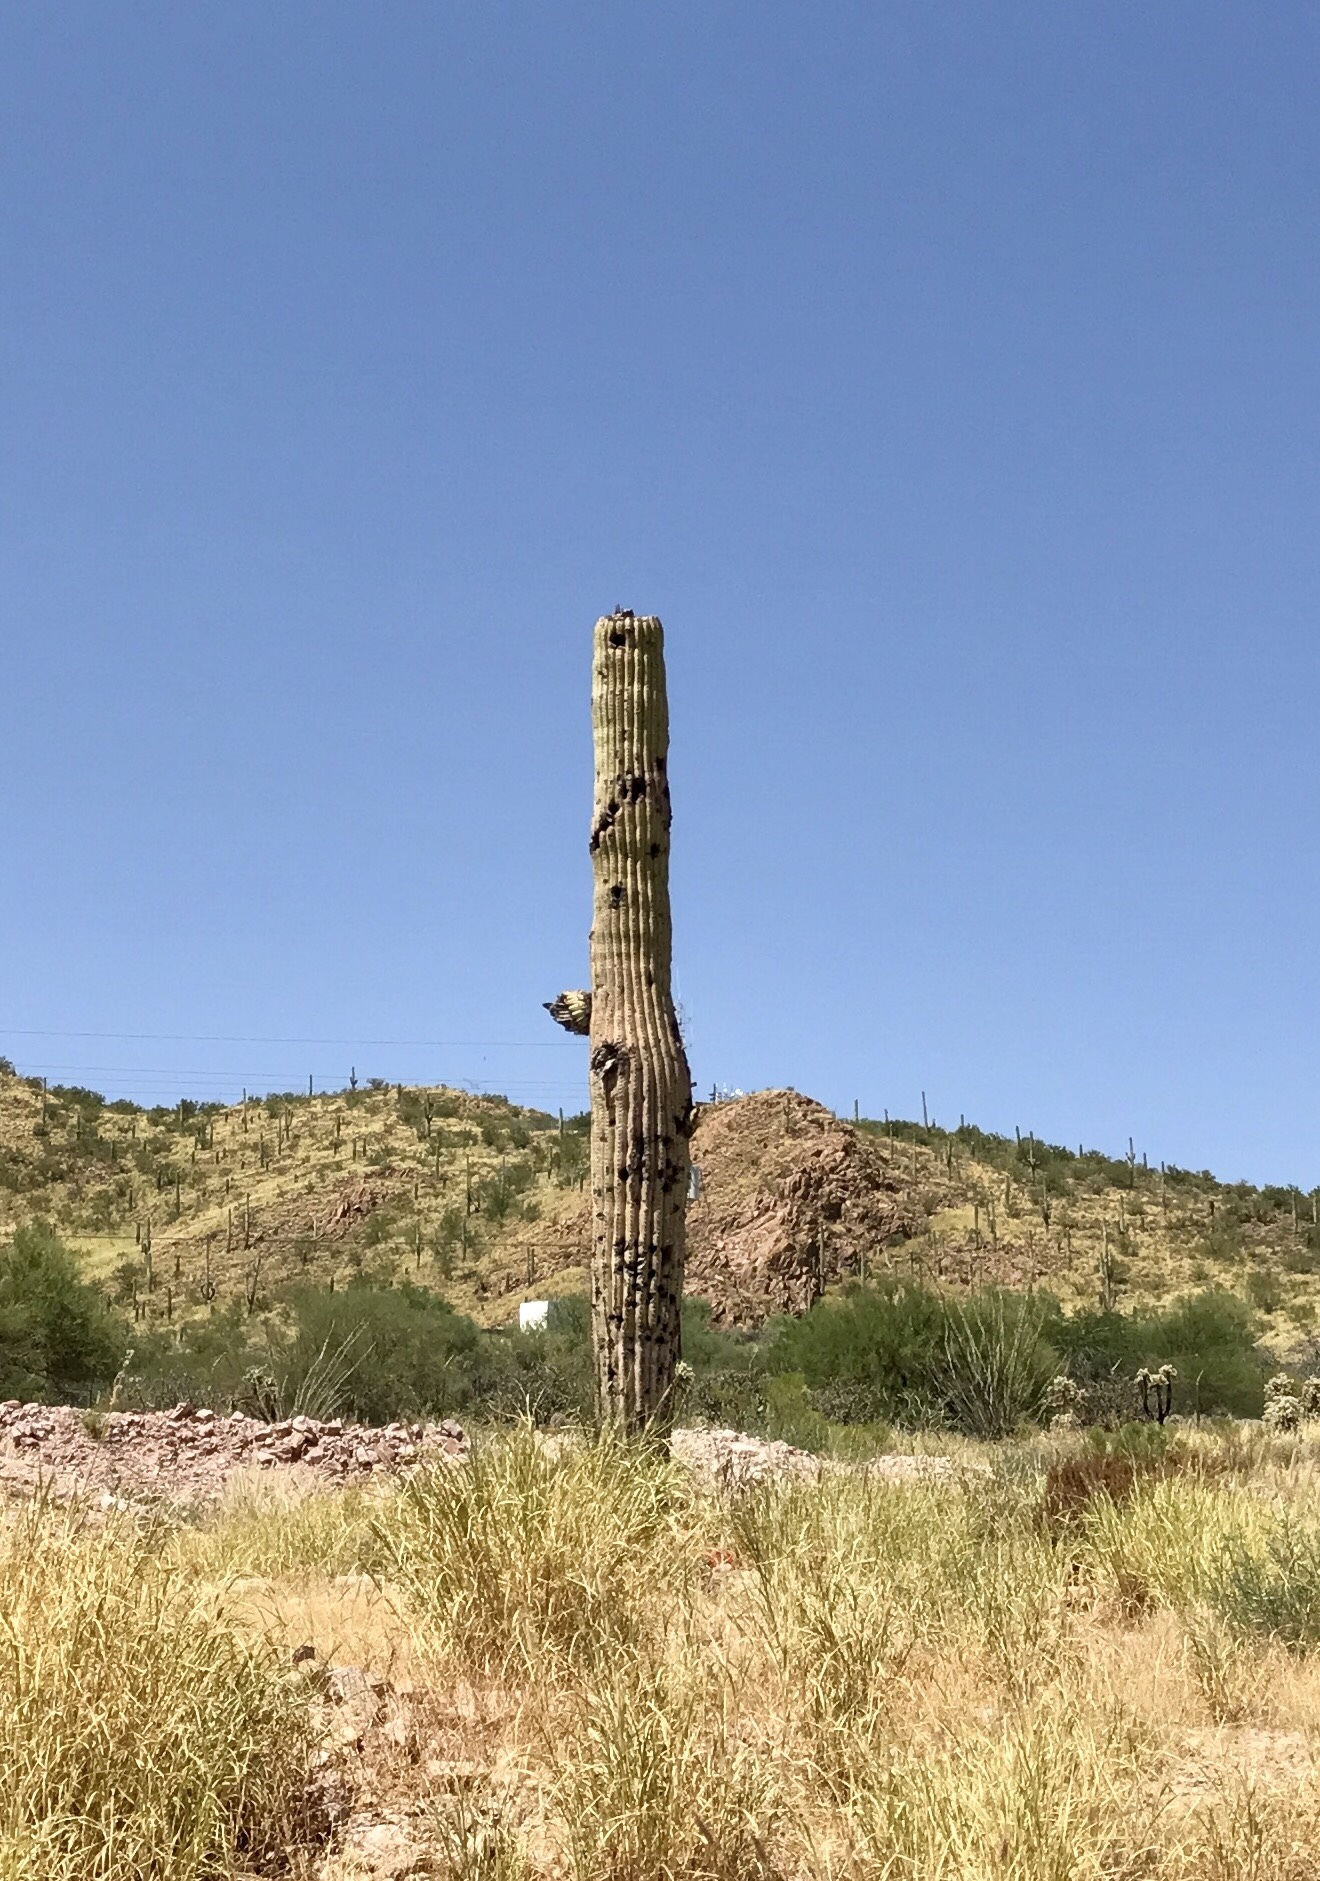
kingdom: Plantae
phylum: Tracheophyta
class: Magnoliopsida
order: Caryophyllales
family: Cactaceae
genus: Carnegiea
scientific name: Carnegiea gigantea
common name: Saguaro
